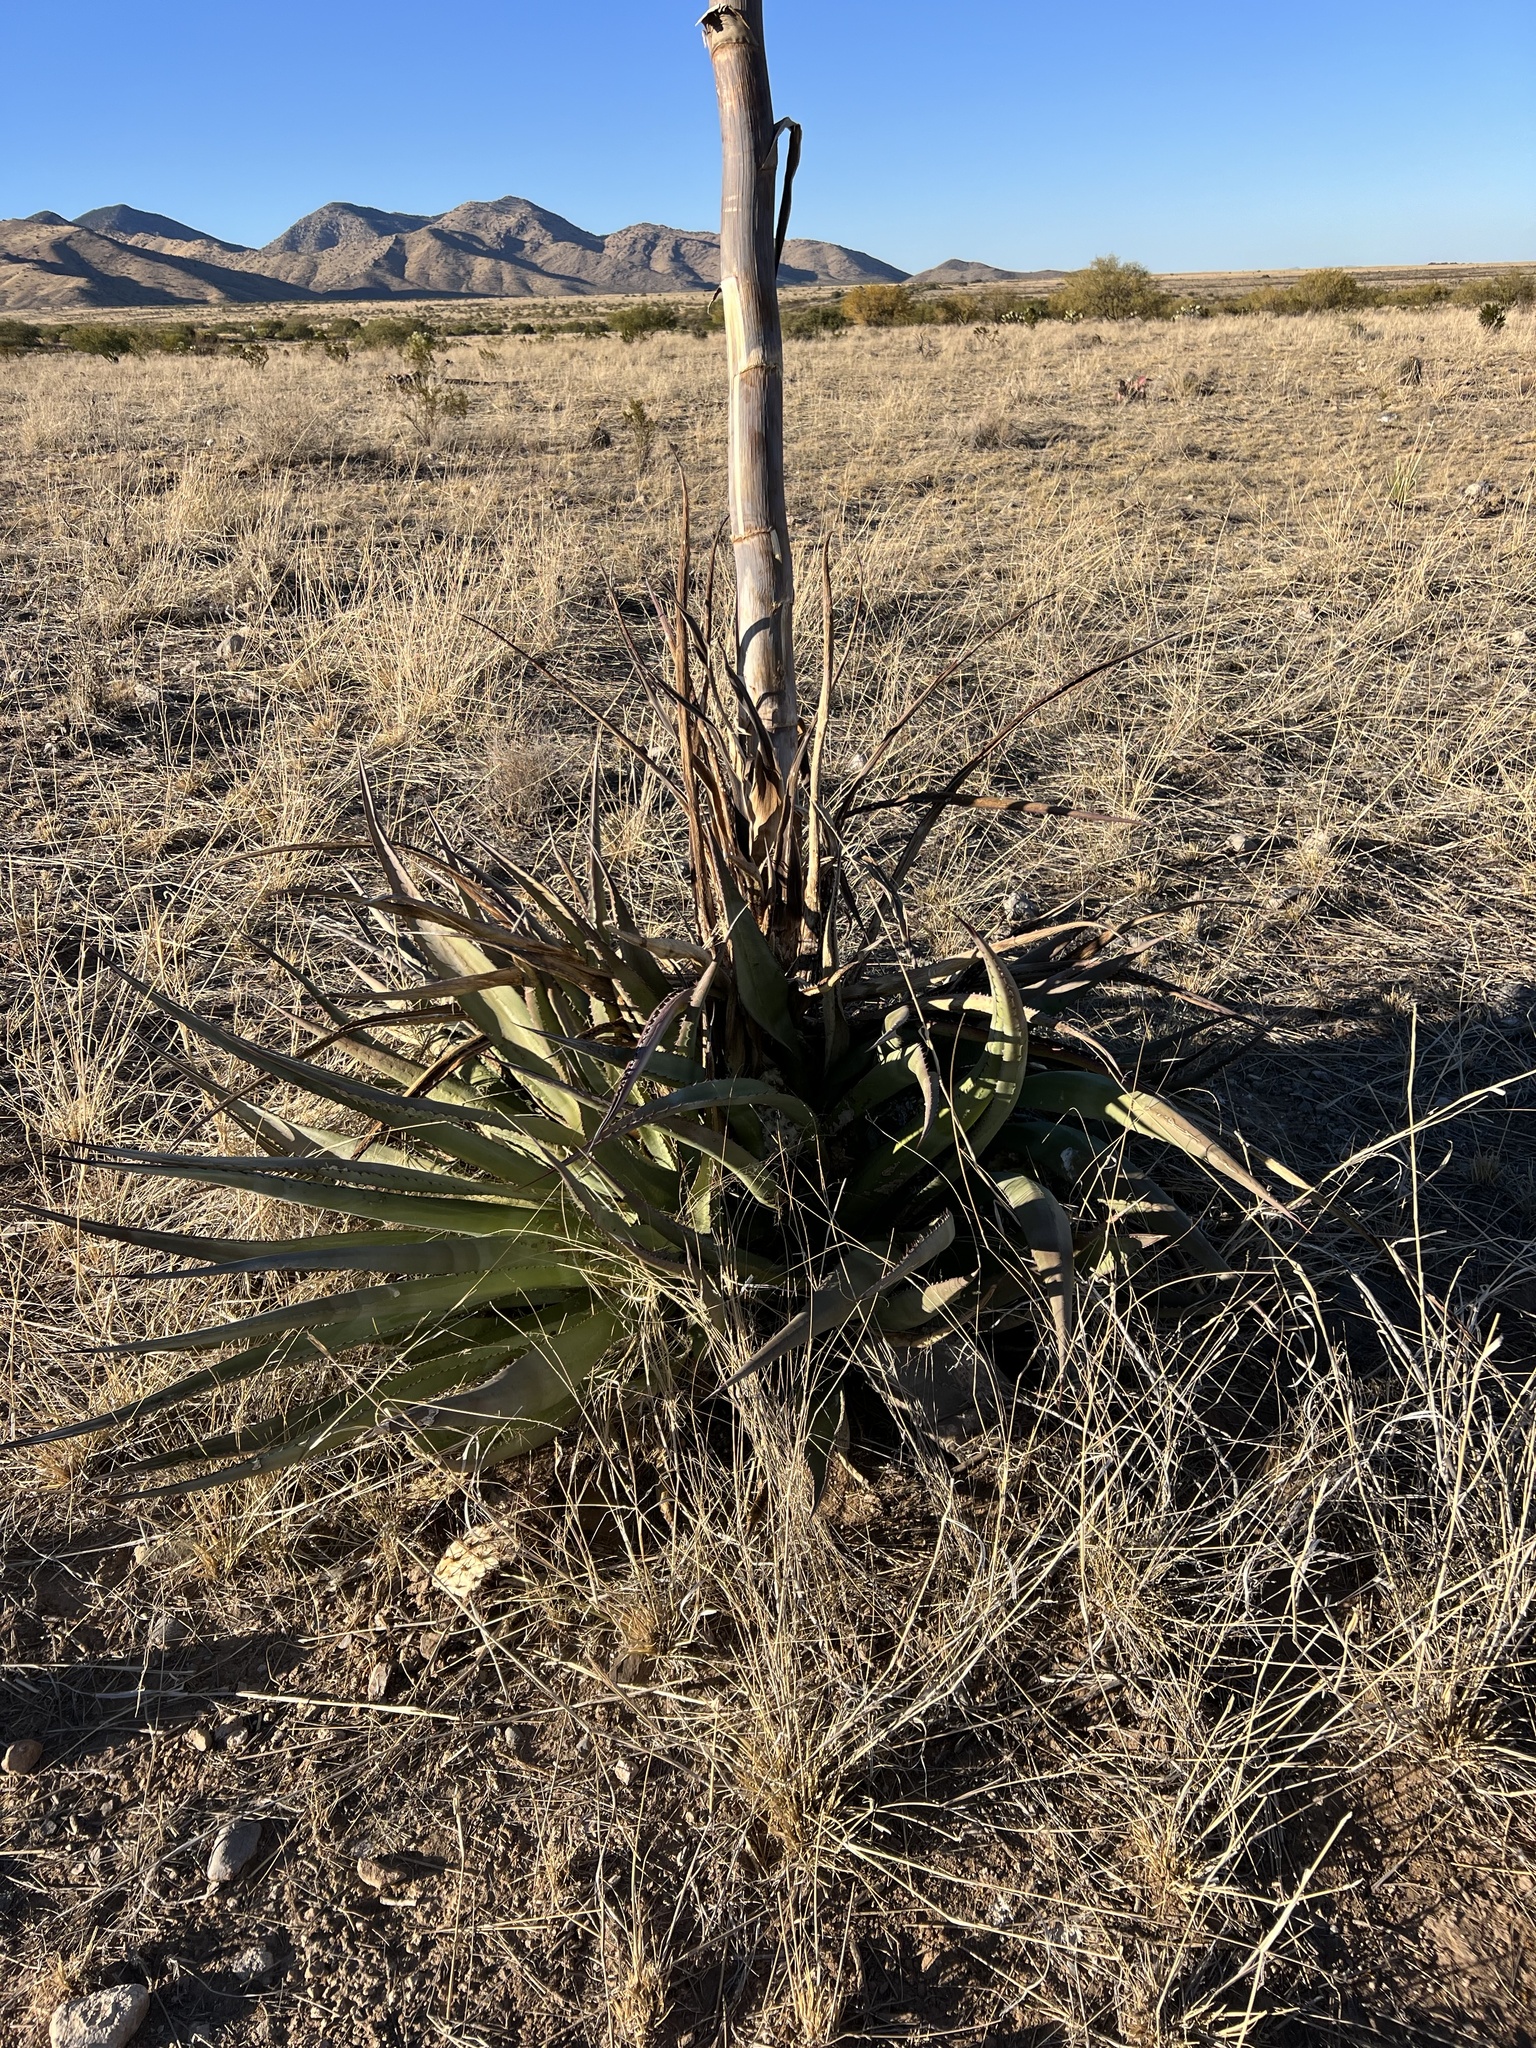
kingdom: Plantae
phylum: Tracheophyta
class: Liliopsida
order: Asparagales
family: Asparagaceae
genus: Agave
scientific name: Agave palmeri
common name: Palmer agave
